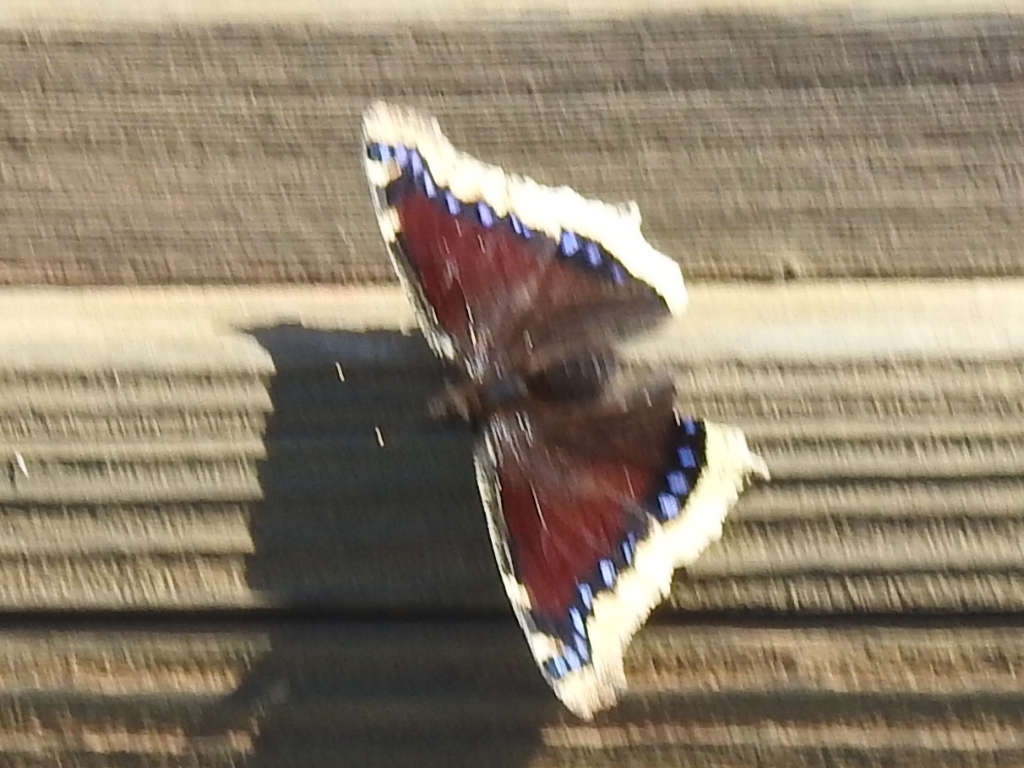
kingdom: Animalia
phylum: Arthropoda
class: Insecta
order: Lepidoptera
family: Nymphalidae
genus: Nymphalis
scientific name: Nymphalis antiopa
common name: Camberwell beauty
